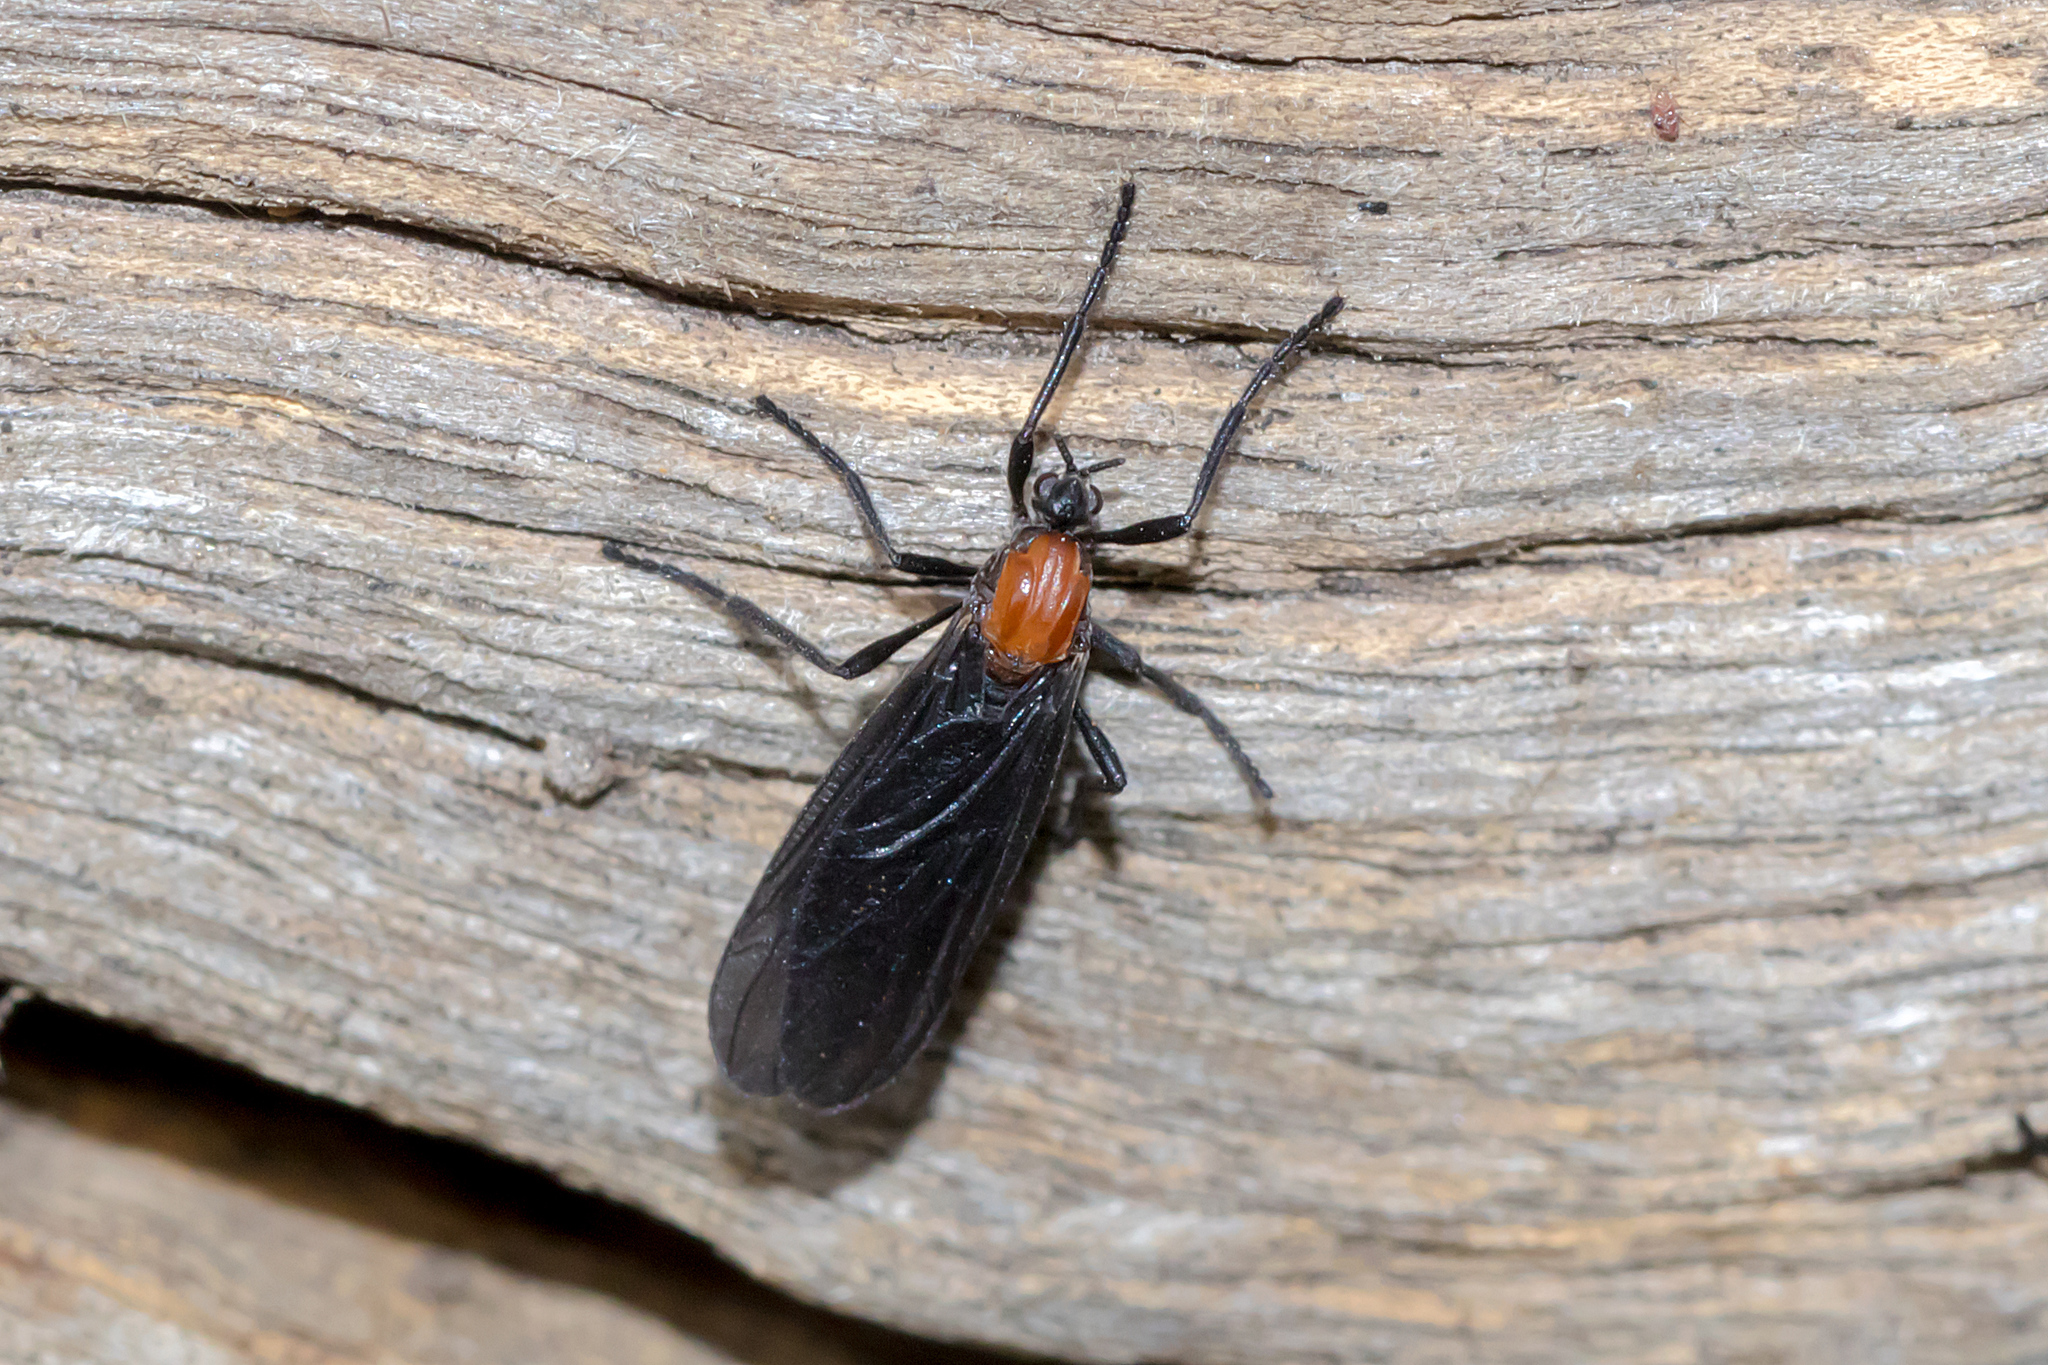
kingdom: Animalia
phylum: Arthropoda
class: Insecta
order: Diptera
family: Bibionidae
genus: Plecia
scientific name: Plecia dimidiata
